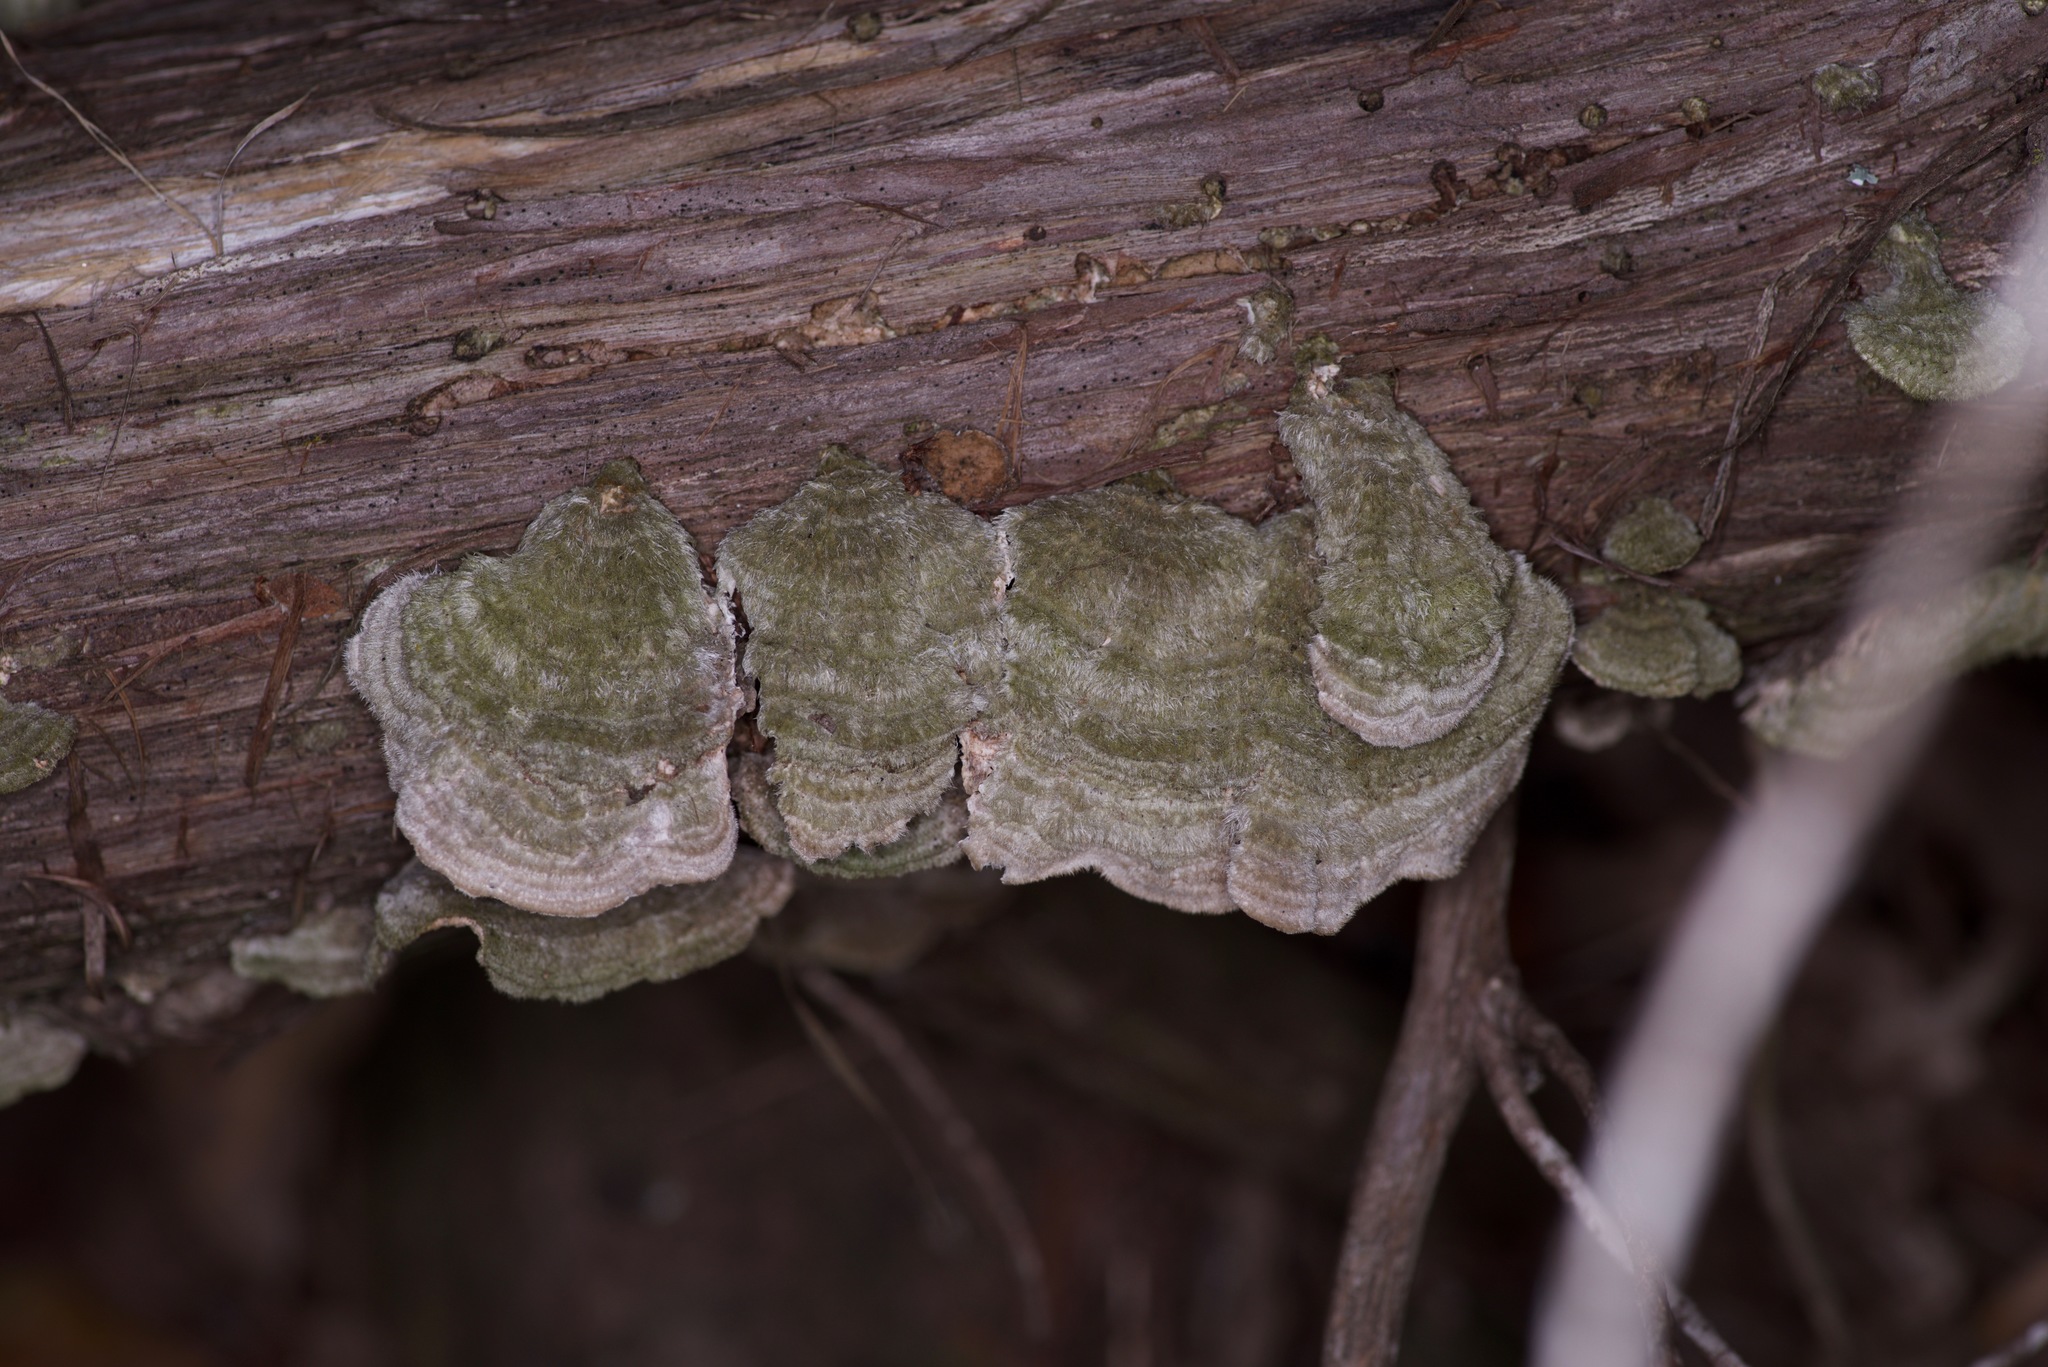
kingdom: Fungi
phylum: Basidiomycota
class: Agaricomycetes
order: Polyporales
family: Polyporaceae
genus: Trametes
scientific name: Trametes hirsuta
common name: Hairy bracket
